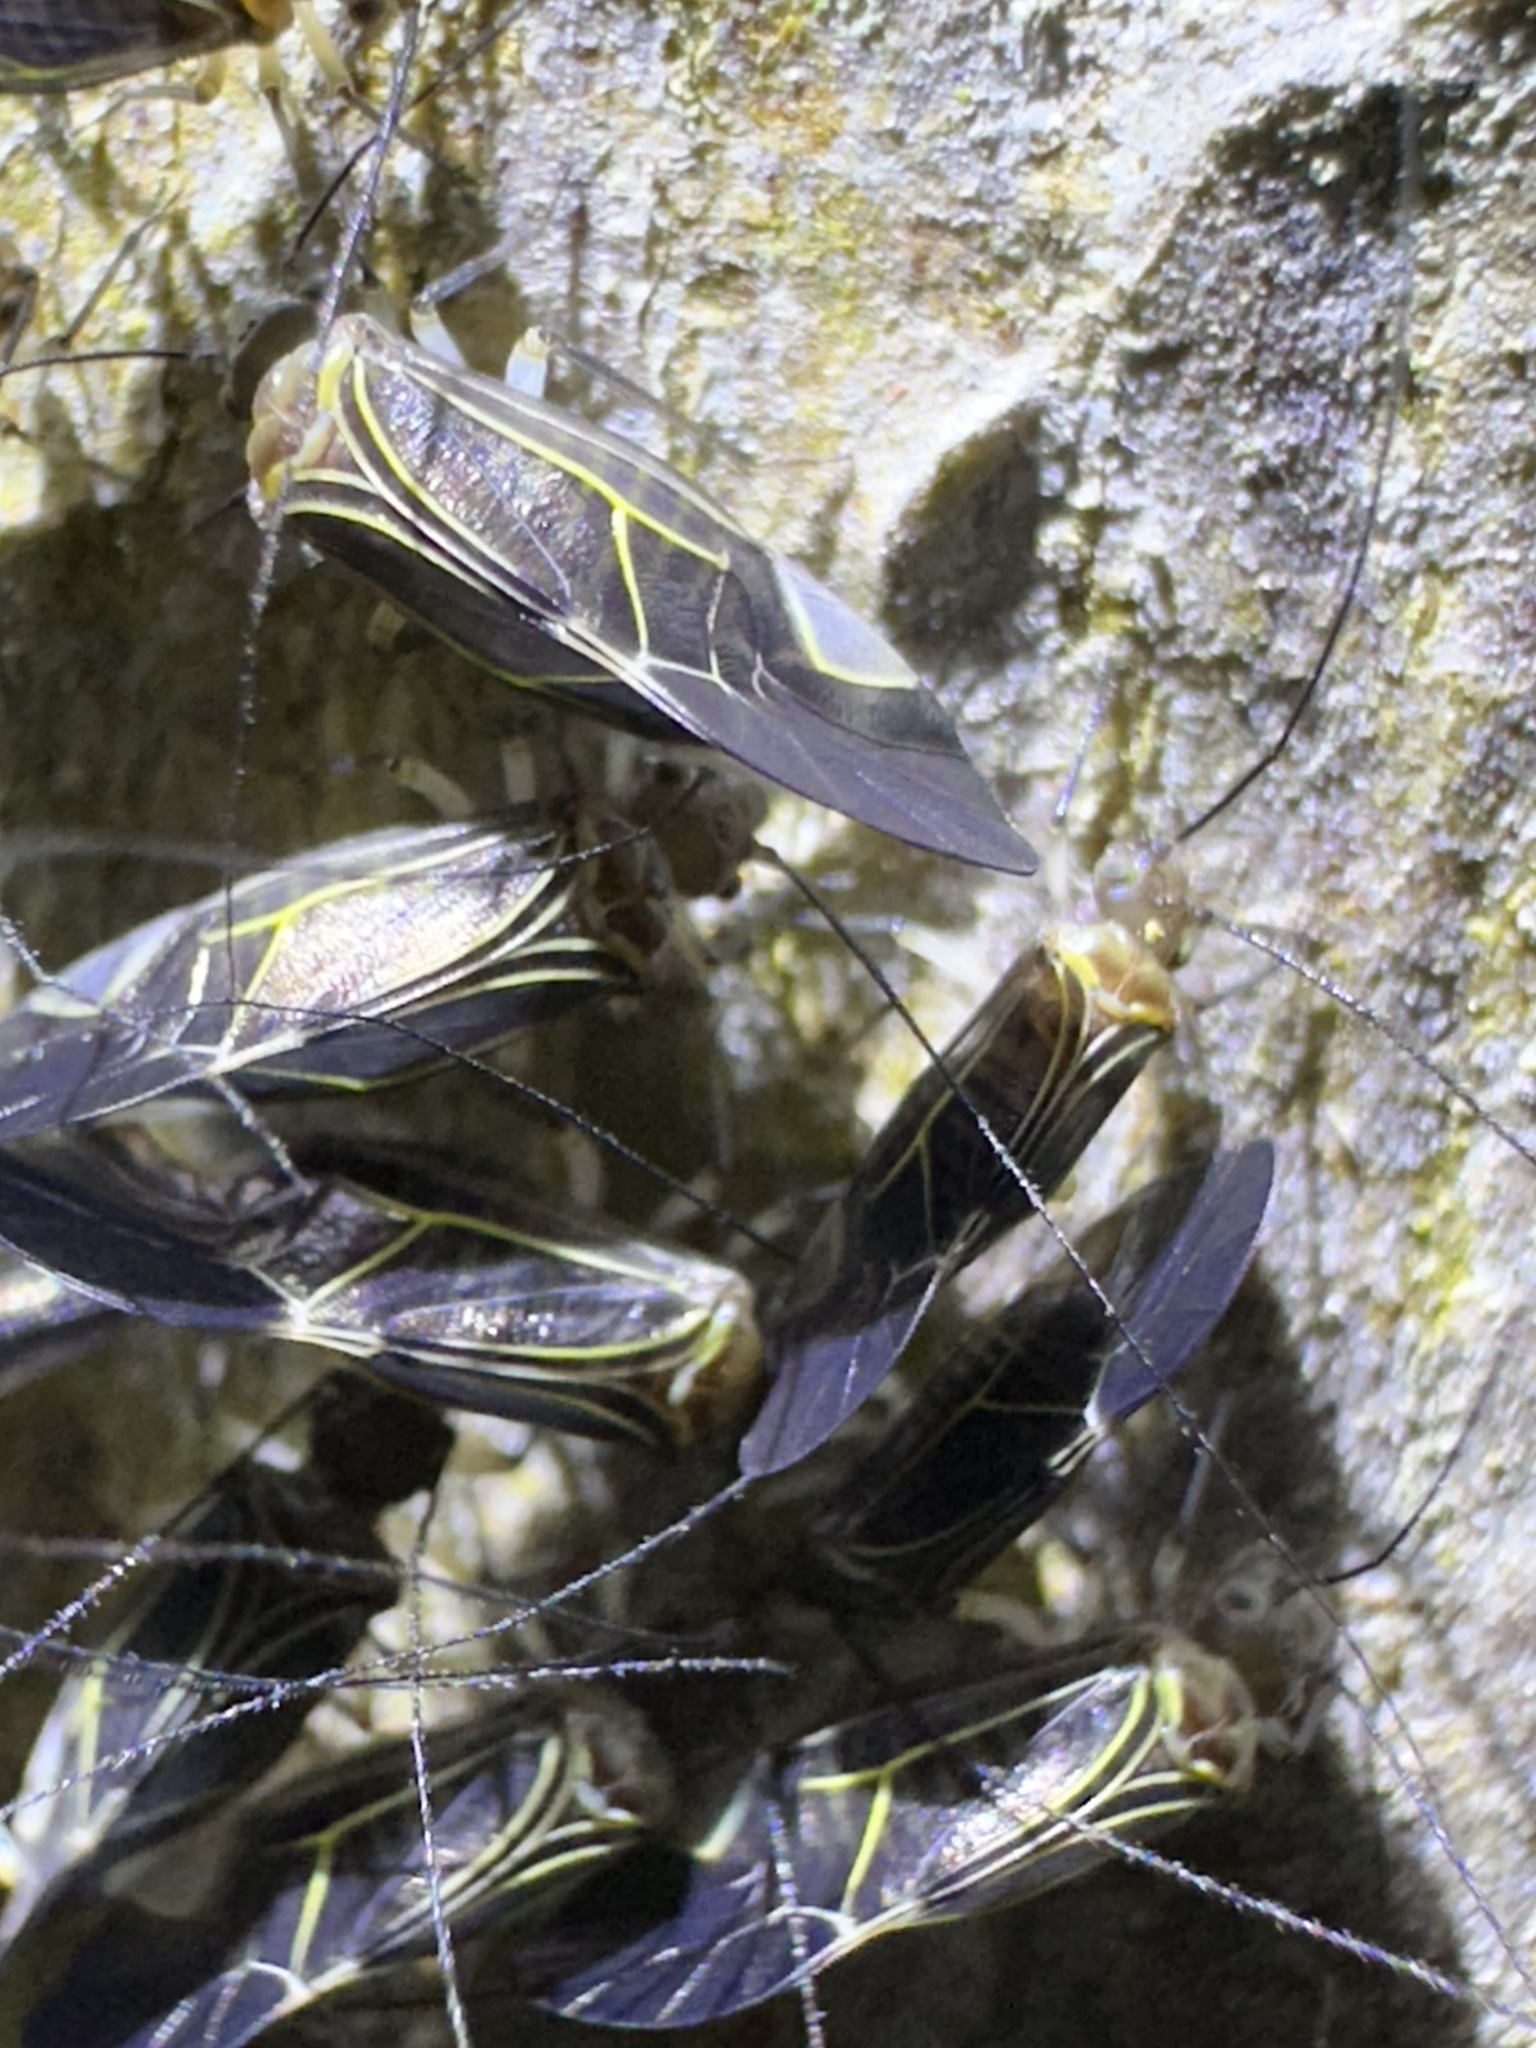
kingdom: Animalia
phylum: Arthropoda
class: Insecta
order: Psocodea
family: Psocidae
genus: Cerastipsocus
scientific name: Cerastipsocus venosus
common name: Tree cattle
